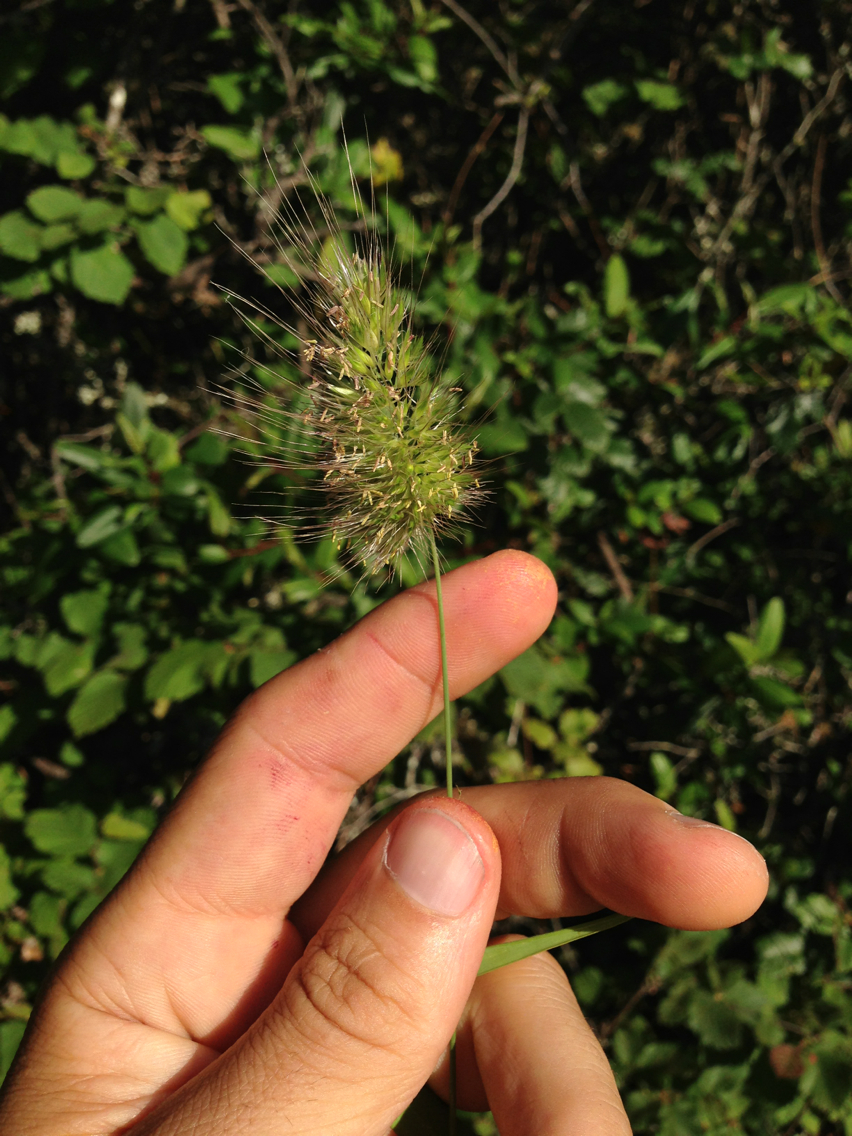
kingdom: Plantae
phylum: Tracheophyta
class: Liliopsida
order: Poales
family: Poaceae
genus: Cynosurus
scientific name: Cynosurus echinatus
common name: Rough dog's-tail
